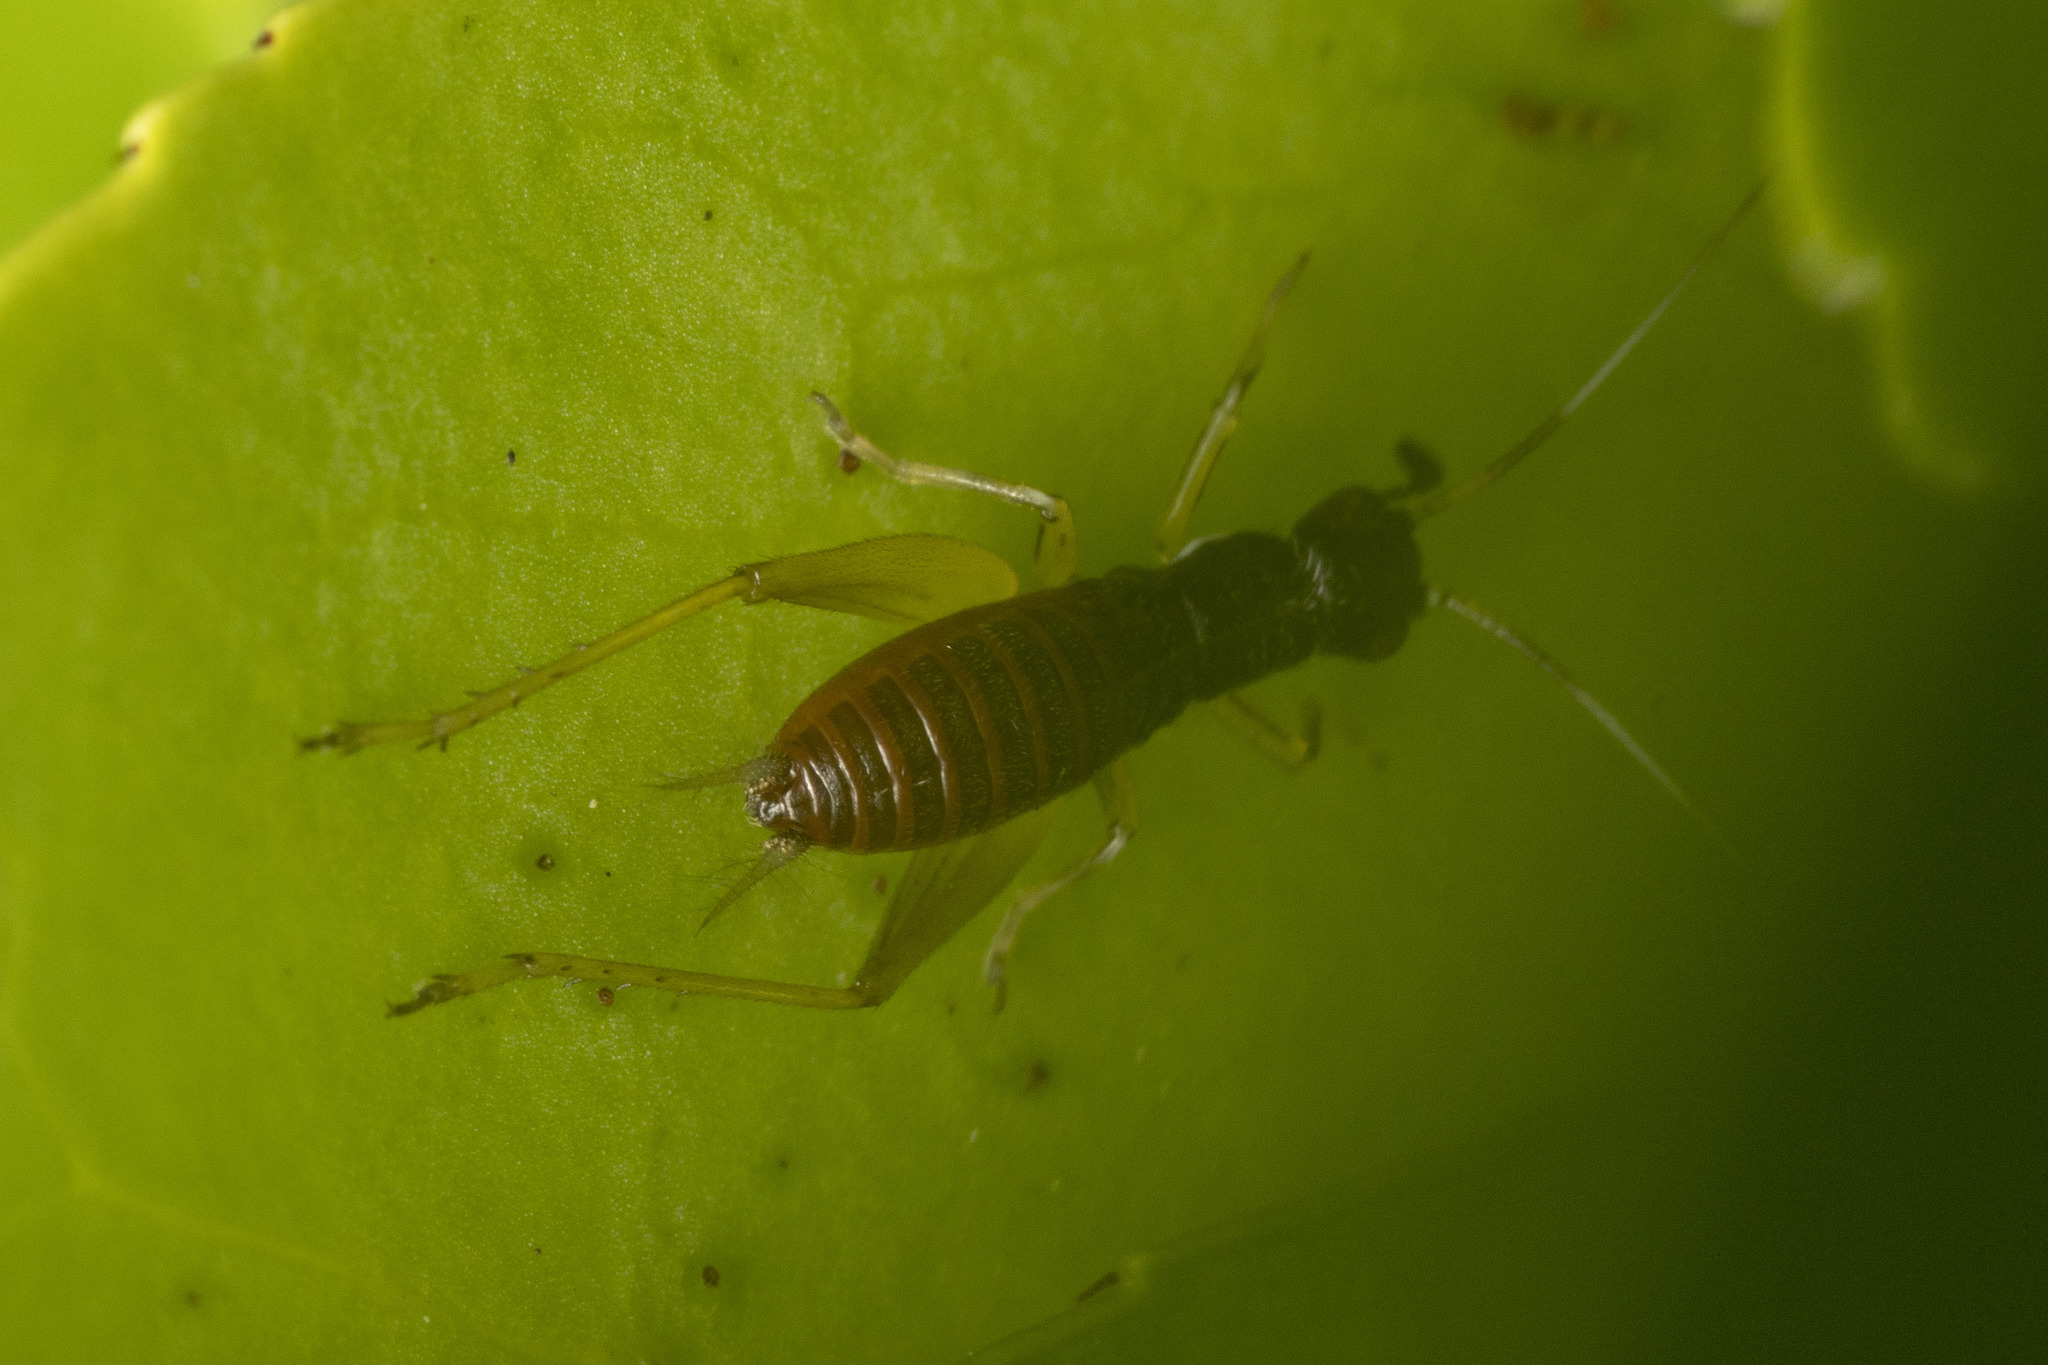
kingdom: Animalia
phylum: Arthropoda
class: Insecta
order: Orthoptera
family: Trigonidiidae
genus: Phyllopalpus
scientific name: Phyllopalpus pulchellus
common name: Handsome trig
